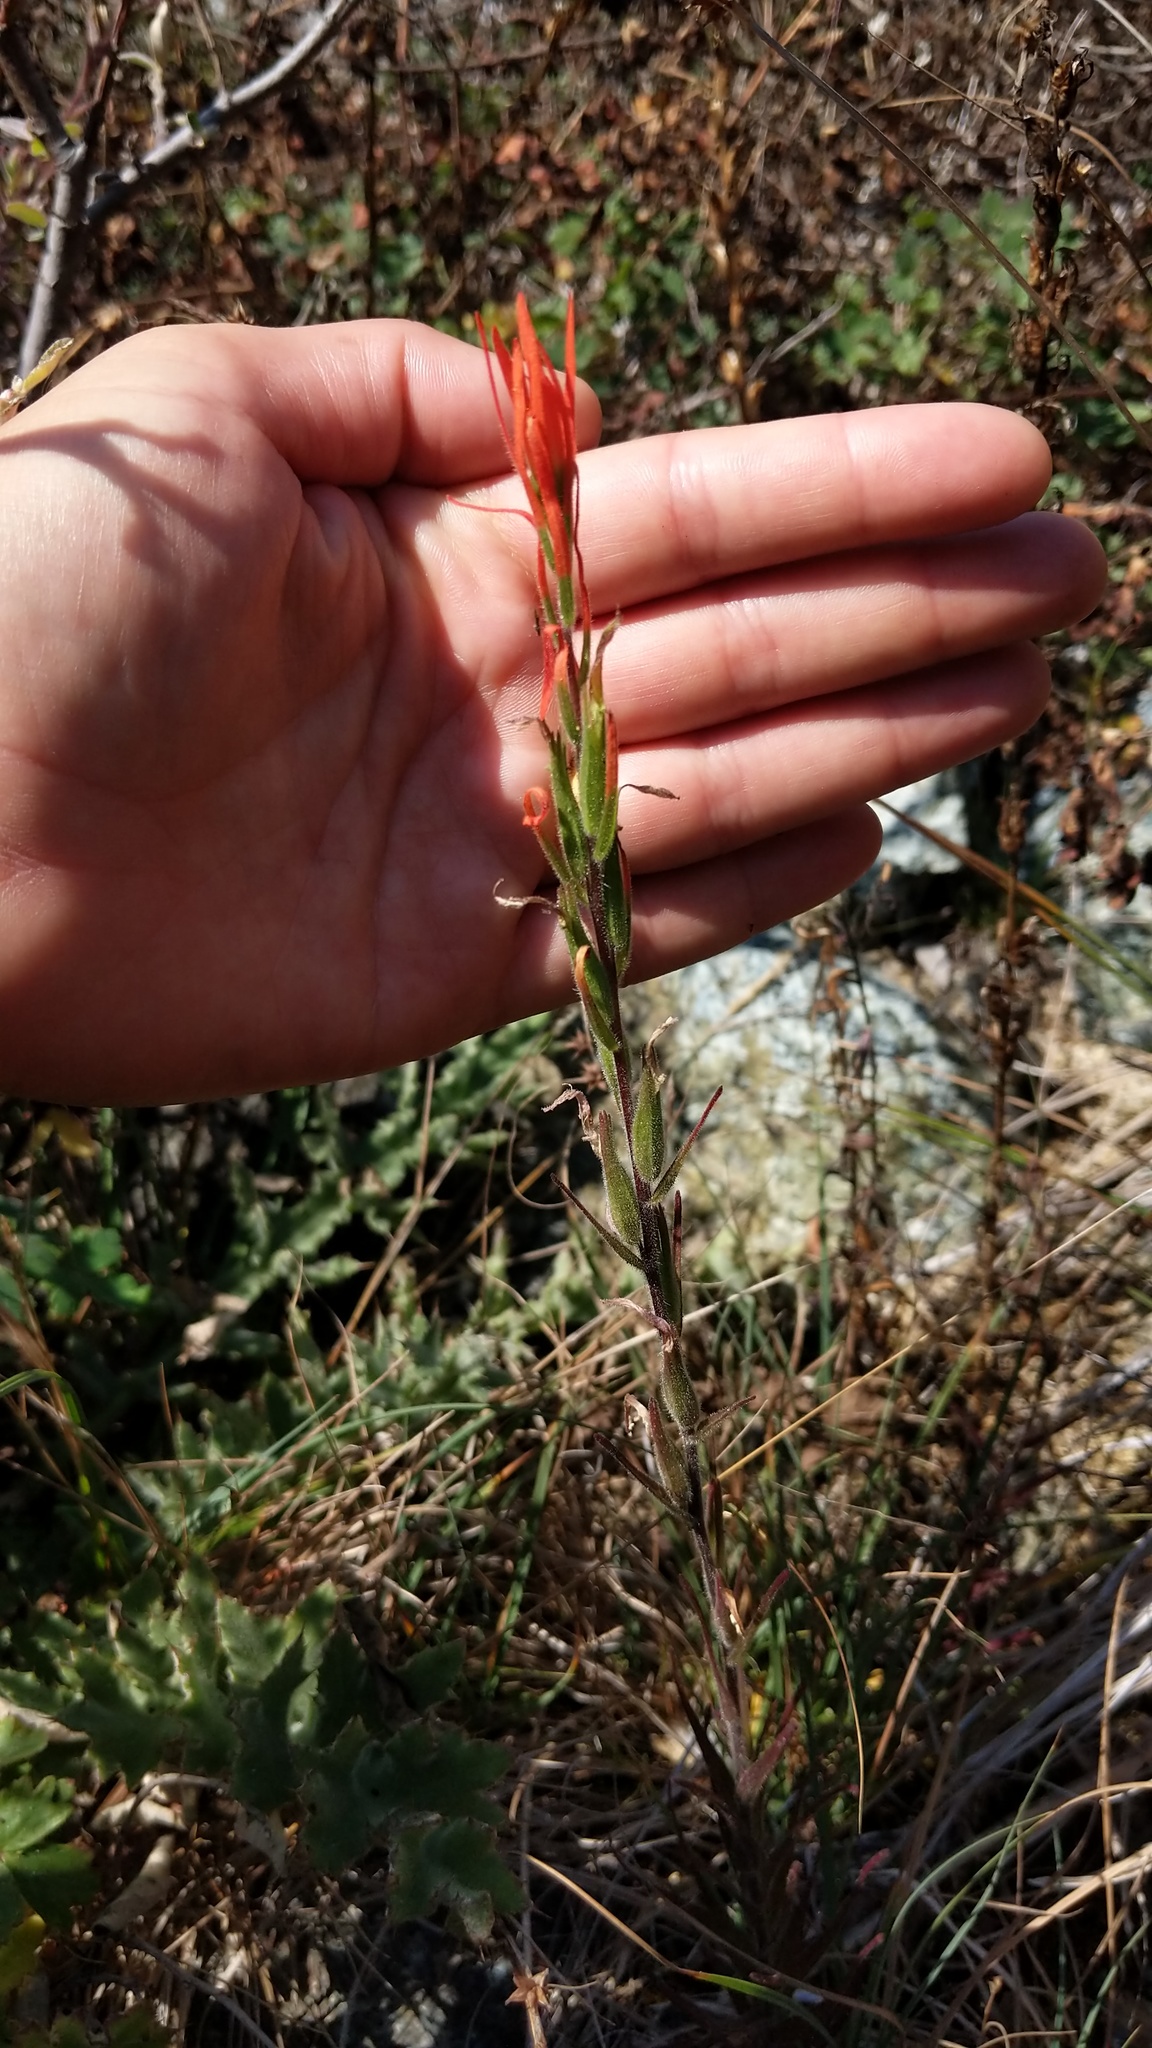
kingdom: Plantae
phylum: Tracheophyta
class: Magnoliopsida
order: Lamiales
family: Orobanchaceae
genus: Castilleja
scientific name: Castilleja minor
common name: Seep paintbrush
